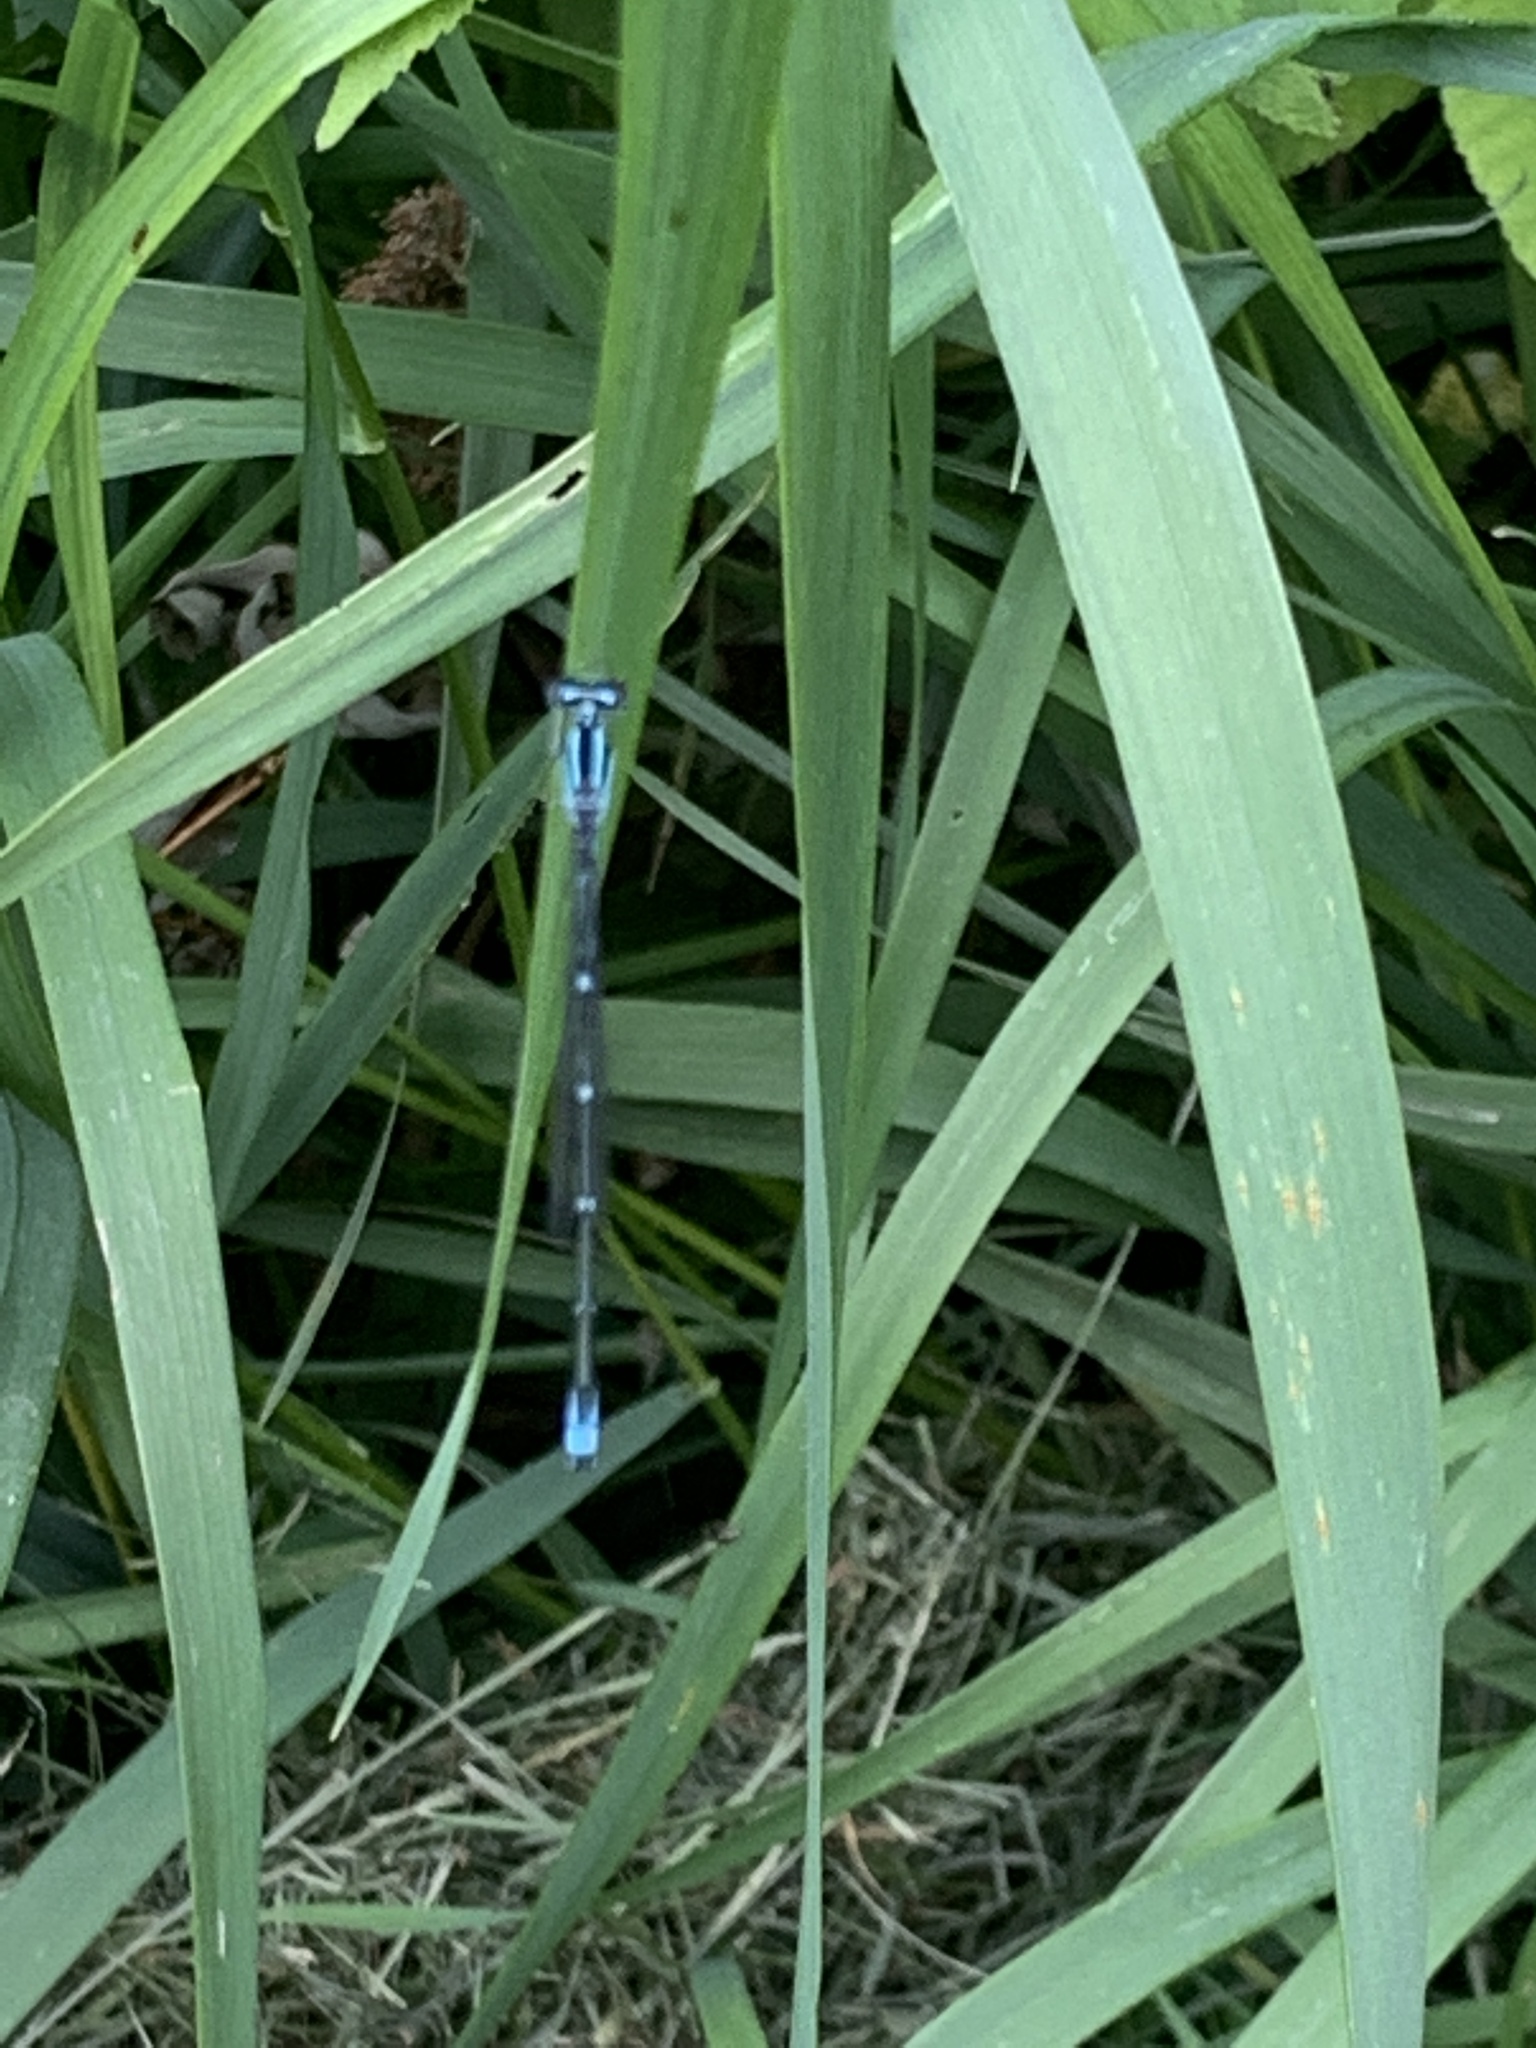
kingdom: Animalia
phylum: Arthropoda
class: Insecta
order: Odonata
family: Coenagrionidae
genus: Enallagma
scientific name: Enallagma exsulans
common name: Stream bluet
